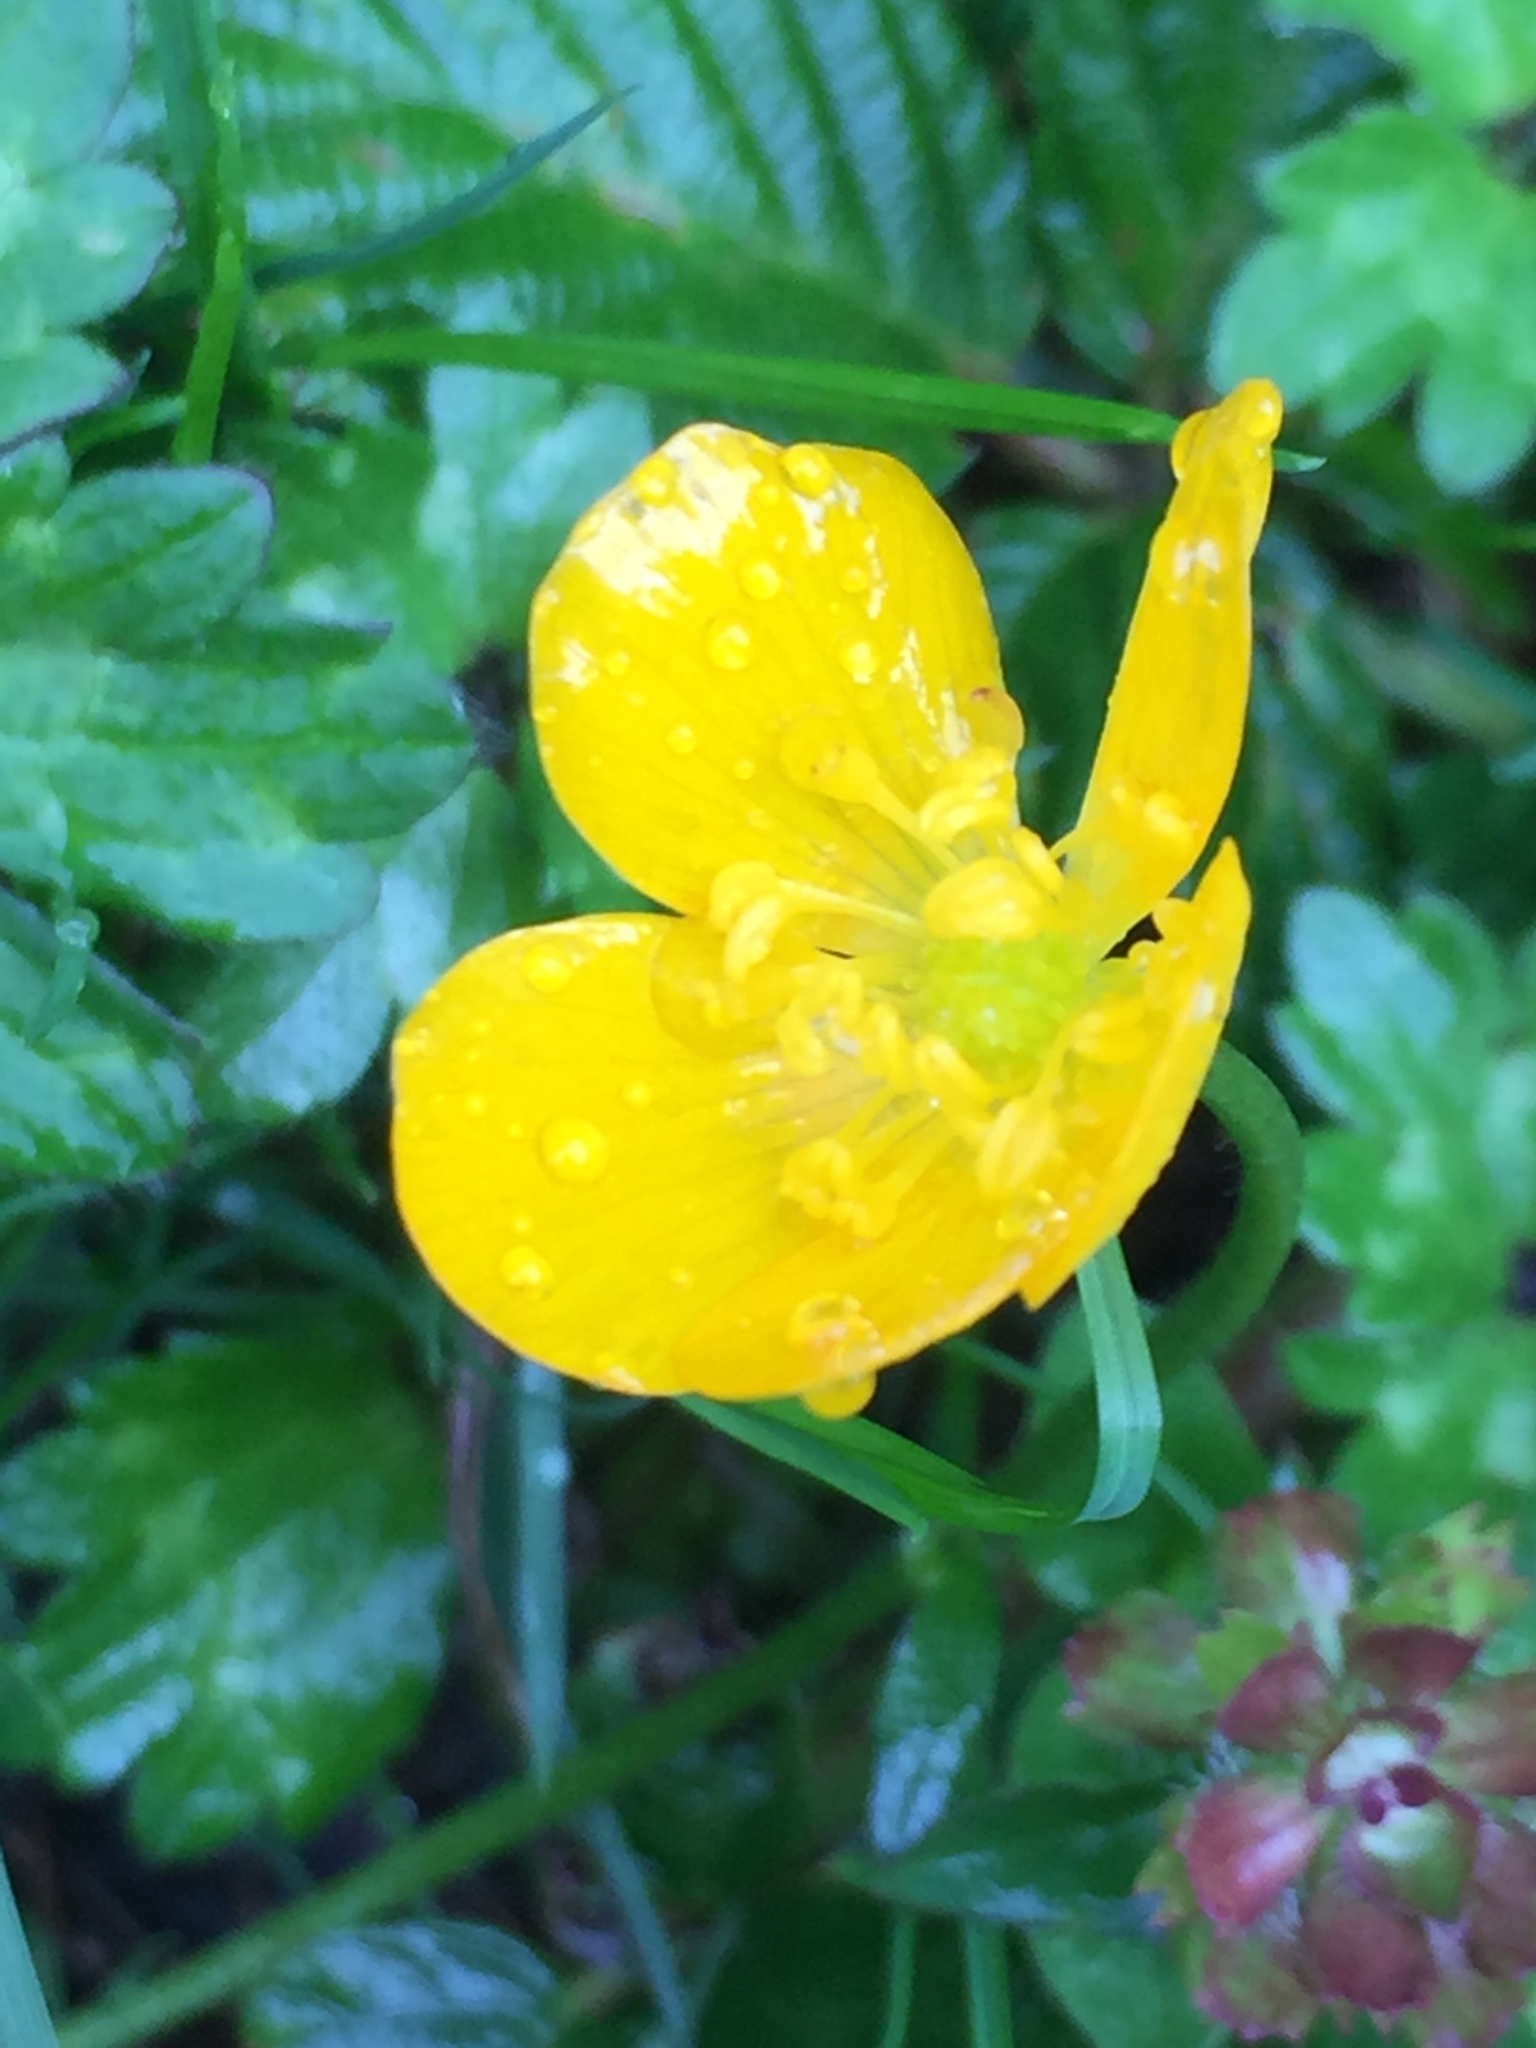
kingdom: Plantae
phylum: Tracheophyta
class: Magnoliopsida
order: Ranunculales
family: Ranunculaceae
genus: Ranunculus
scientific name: Ranunculus repens
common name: Creeping buttercup
